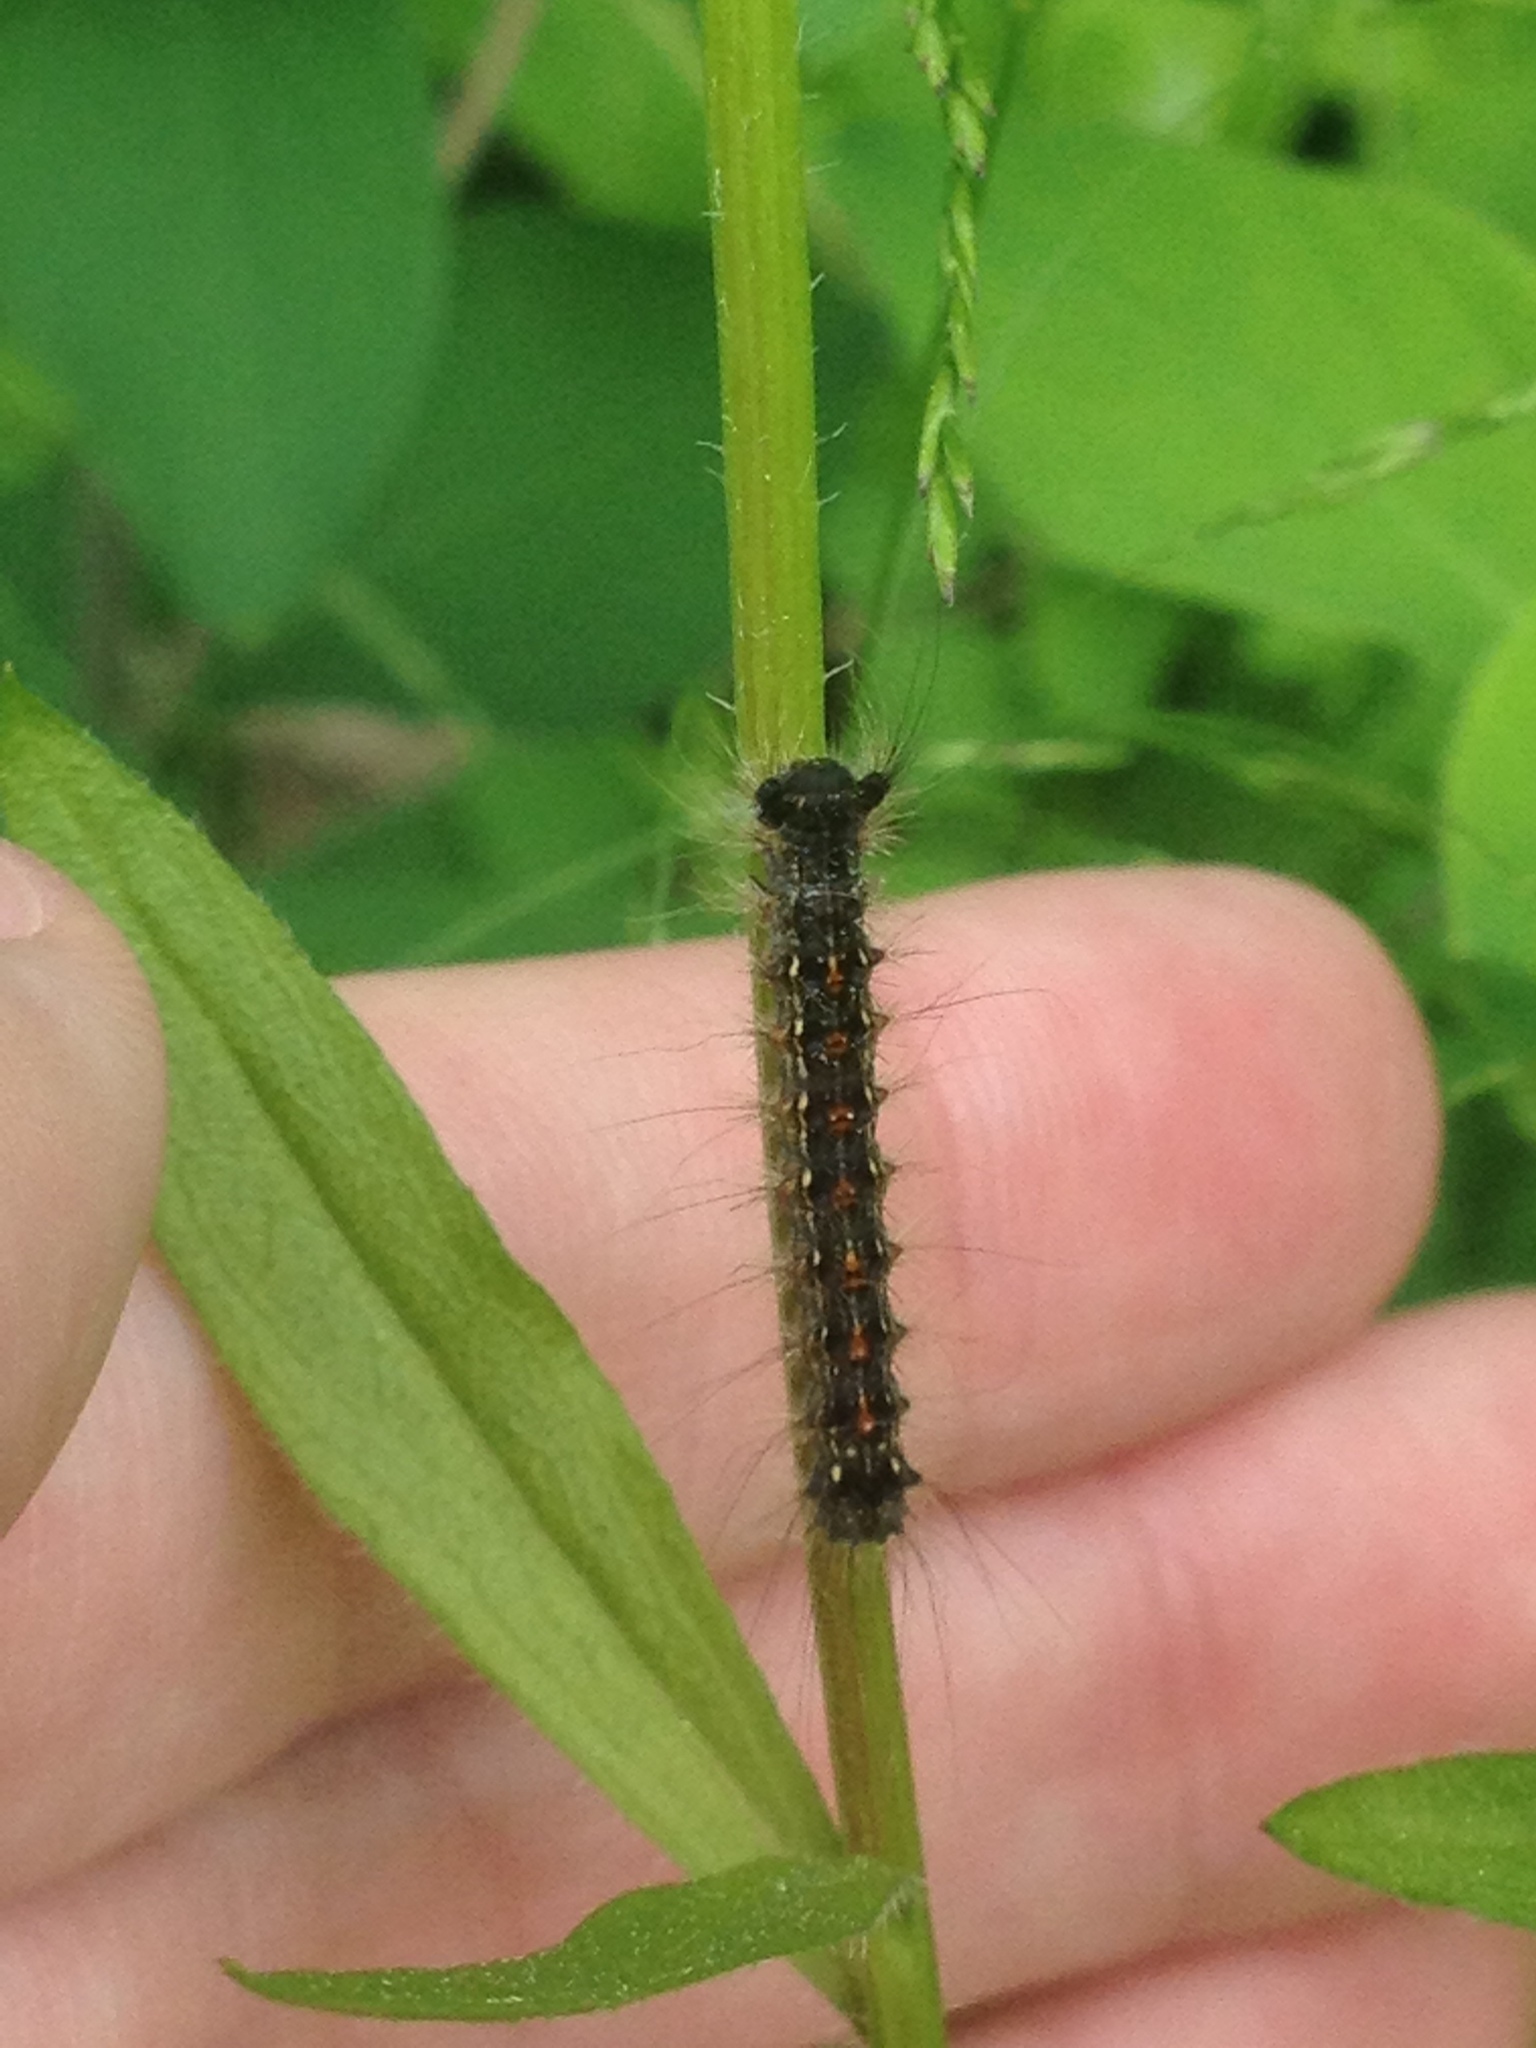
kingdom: Animalia
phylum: Arthropoda
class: Insecta
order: Lepidoptera
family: Erebidae
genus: Lymantria
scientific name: Lymantria dispar
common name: Gypsy moth
